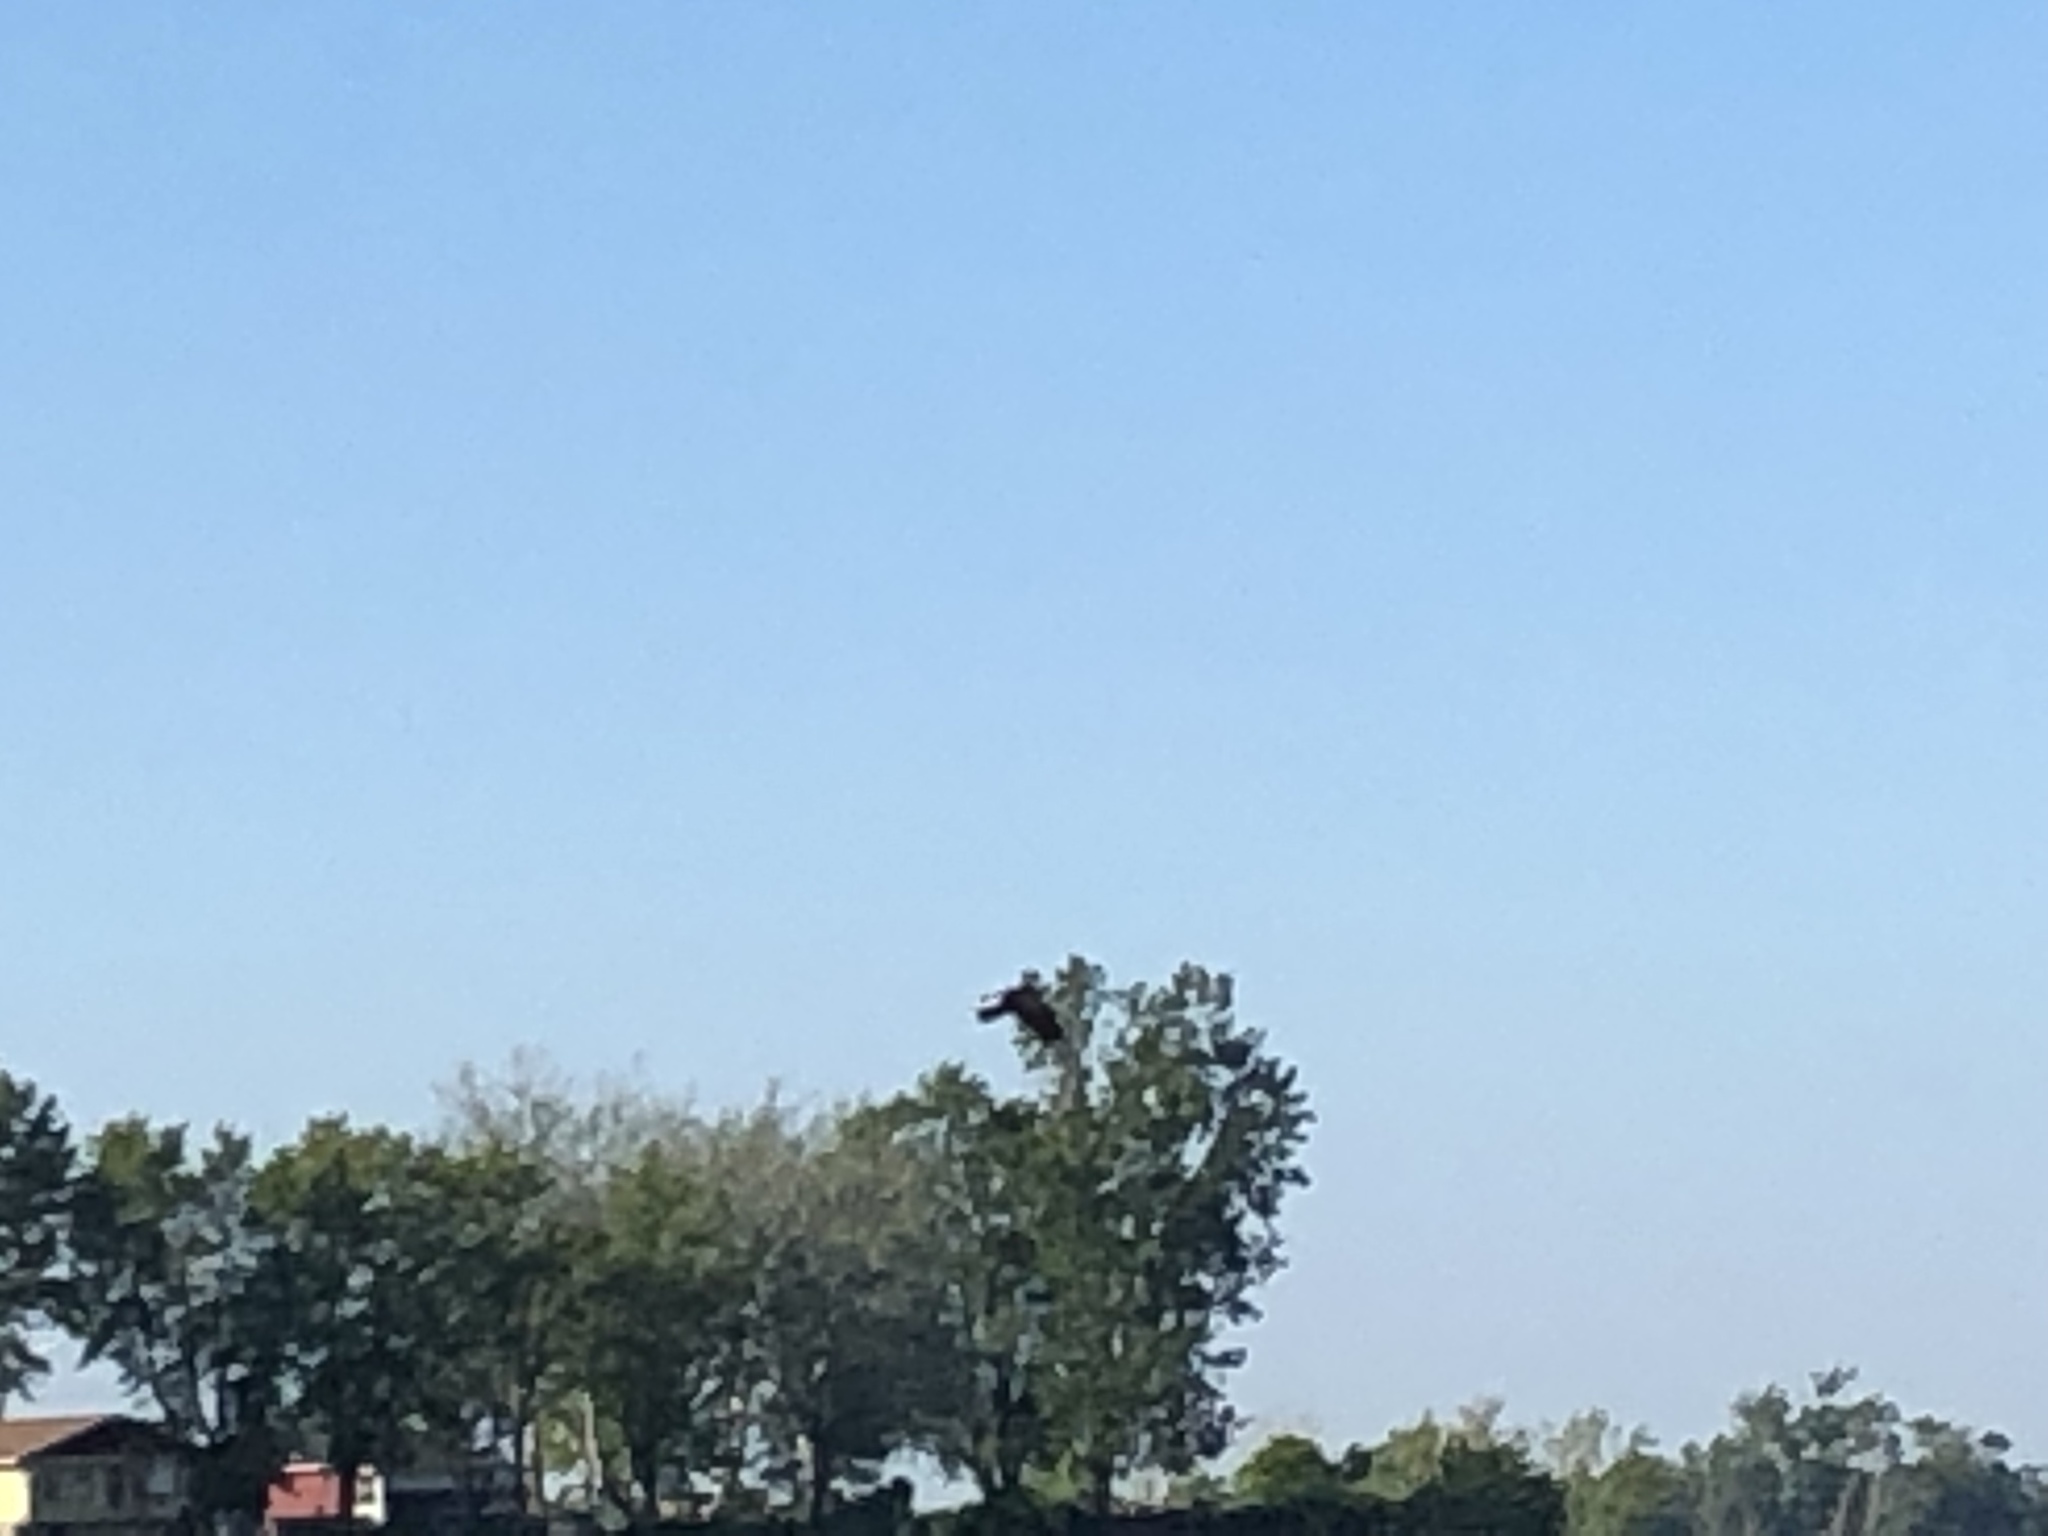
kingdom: Animalia
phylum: Chordata
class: Aves
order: Accipitriformes
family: Accipitridae
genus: Haliaeetus
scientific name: Haliaeetus leucocephalus
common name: Bald eagle
